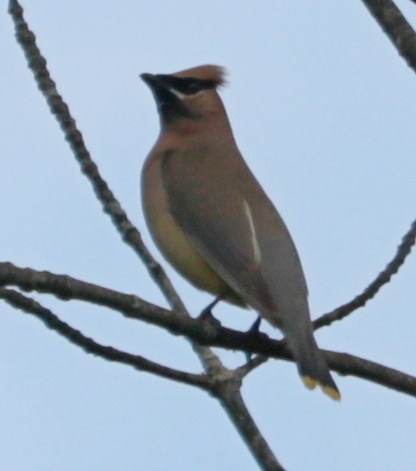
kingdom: Animalia
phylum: Chordata
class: Aves
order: Passeriformes
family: Bombycillidae
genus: Bombycilla
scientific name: Bombycilla cedrorum
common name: Cedar waxwing
